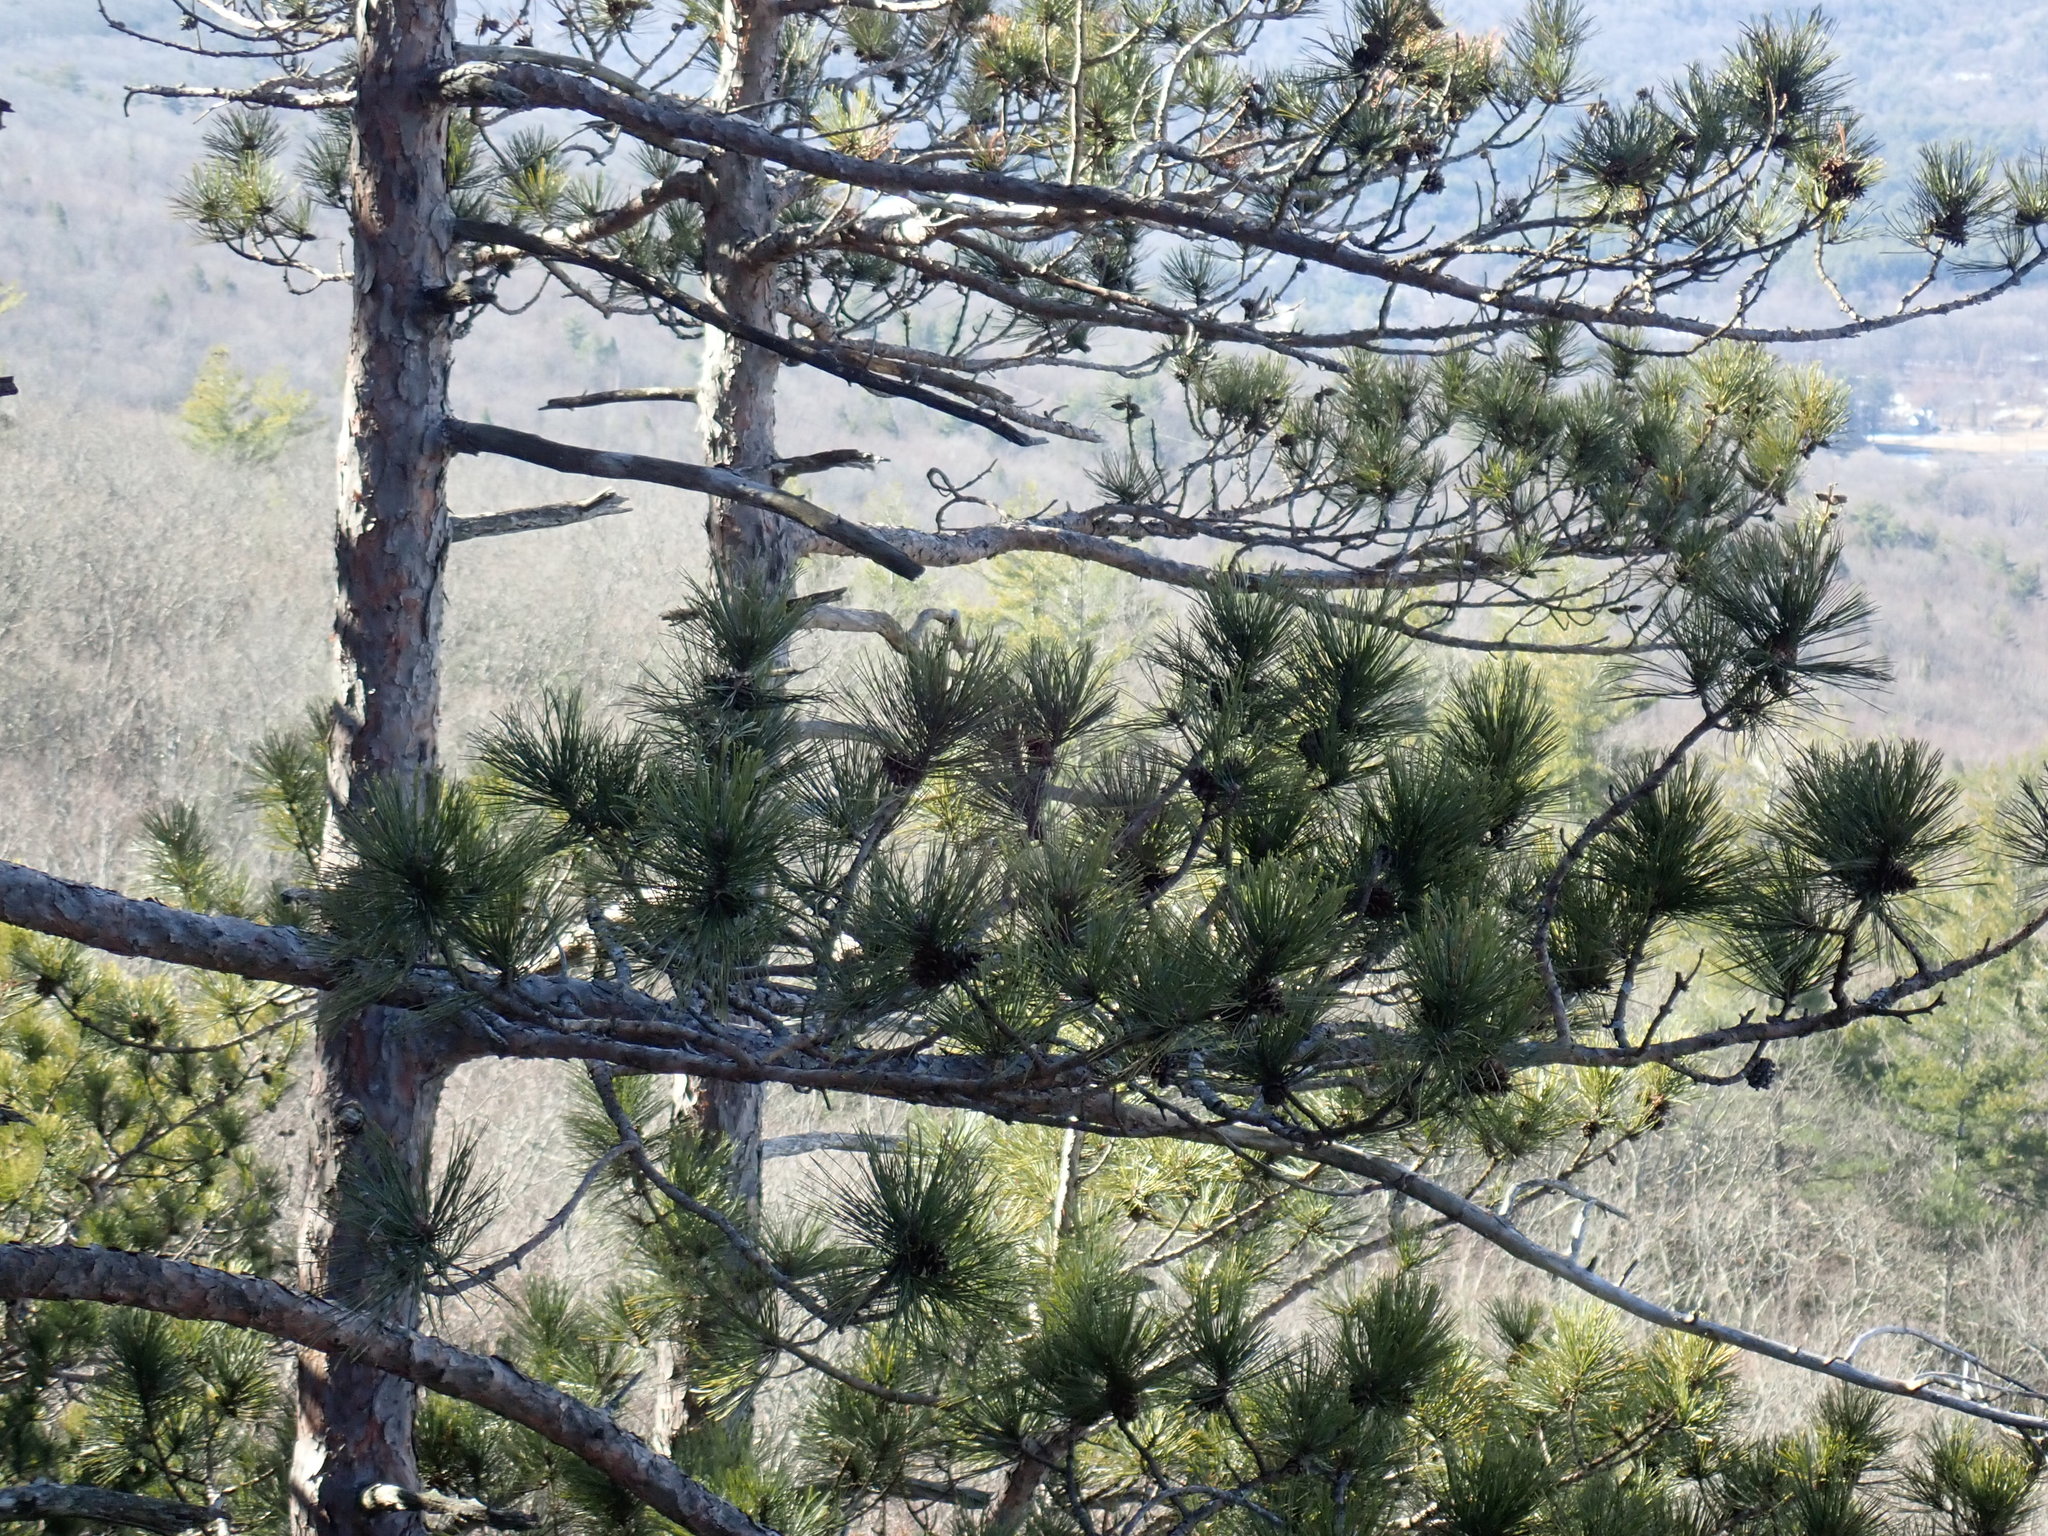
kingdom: Plantae
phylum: Tracheophyta
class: Pinopsida
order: Pinales
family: Pinaceae
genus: Pinus
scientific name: Pinus resinosa
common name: Norway pine
